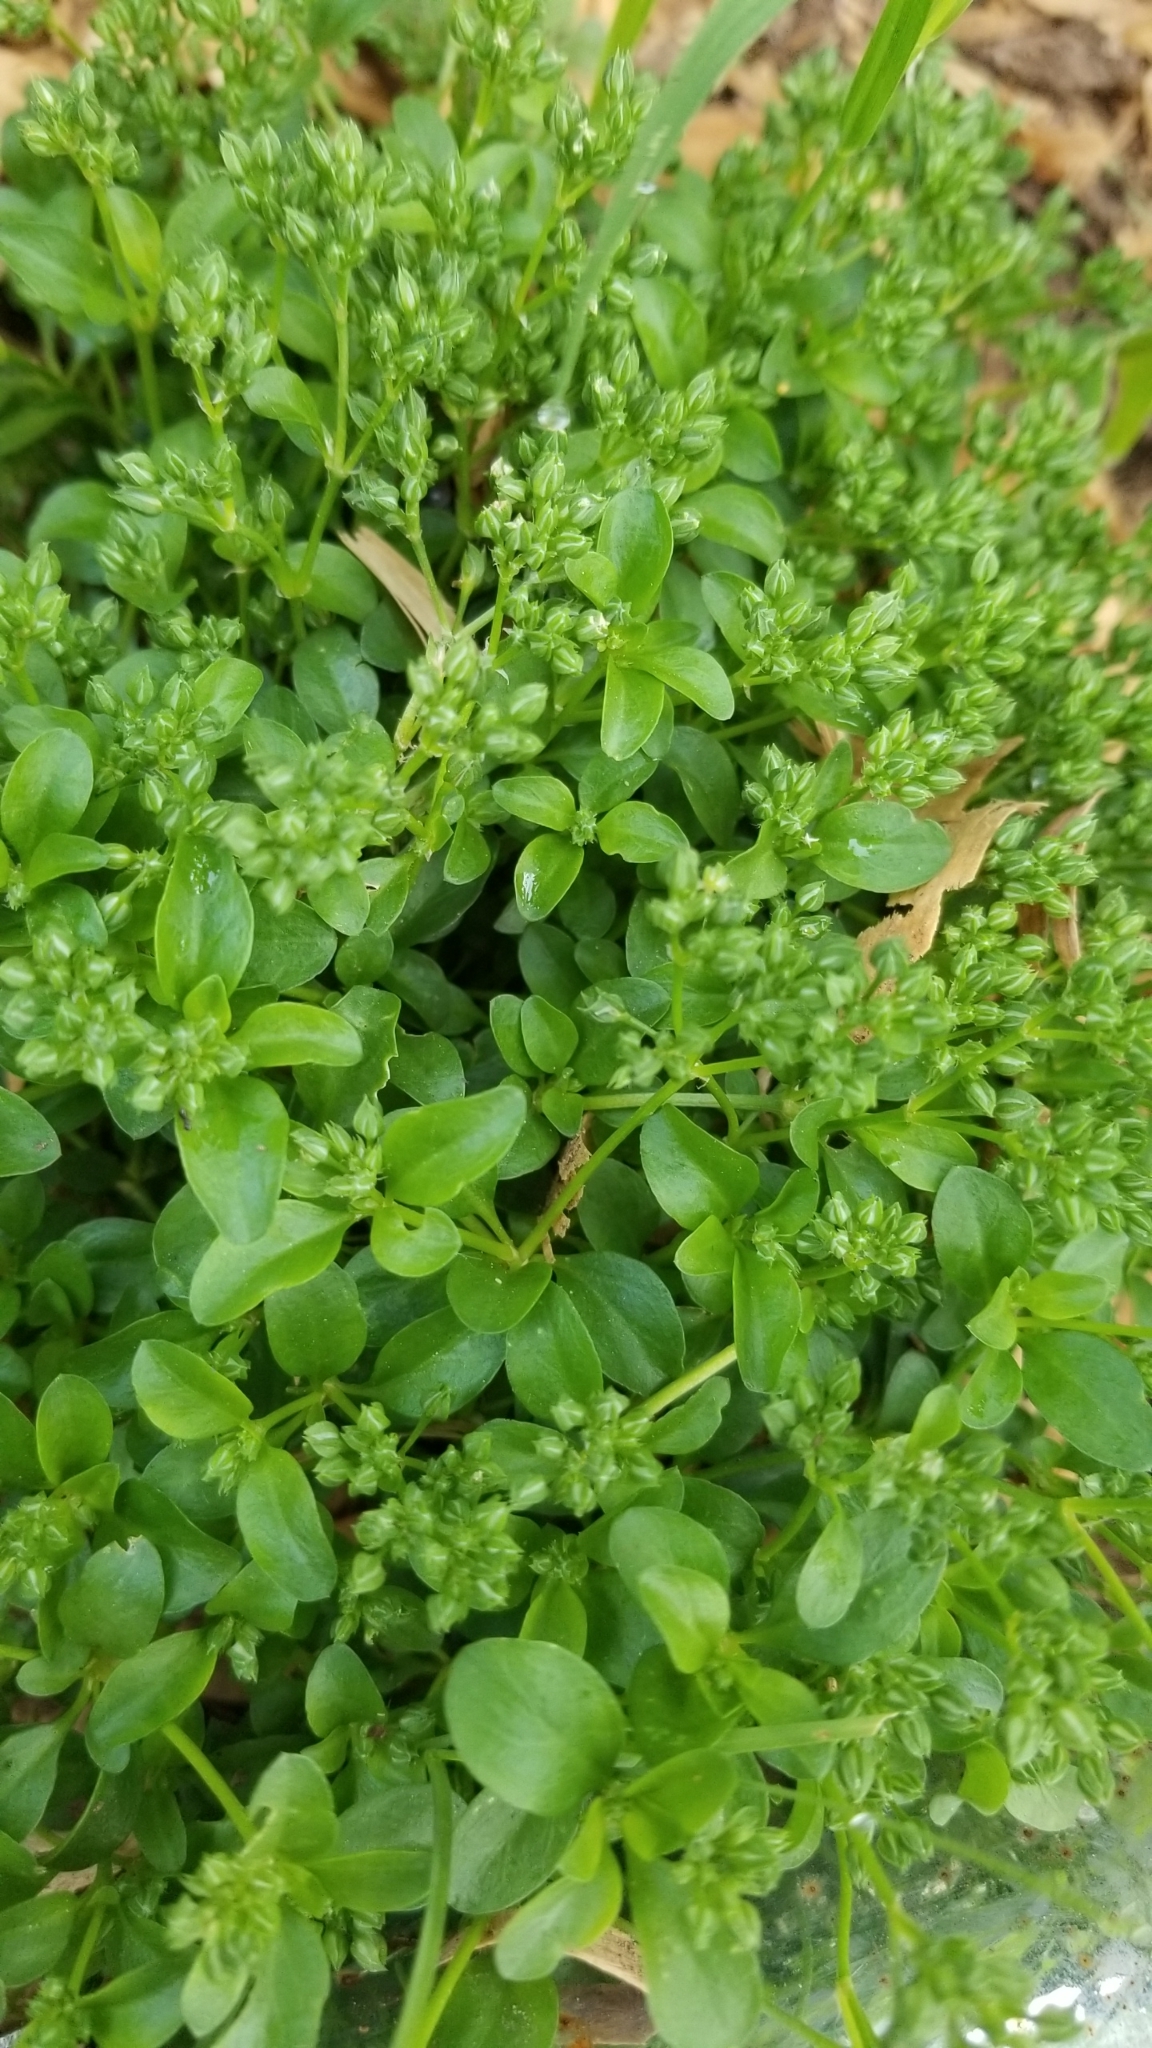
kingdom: Plantae
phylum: Tracheophyta
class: Magnoliopsida
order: Caryophyllales
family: Caryophyllaceae
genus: Polycarpon
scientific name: Polycarpon tetraphyllum
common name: Four-leaved all-seed
